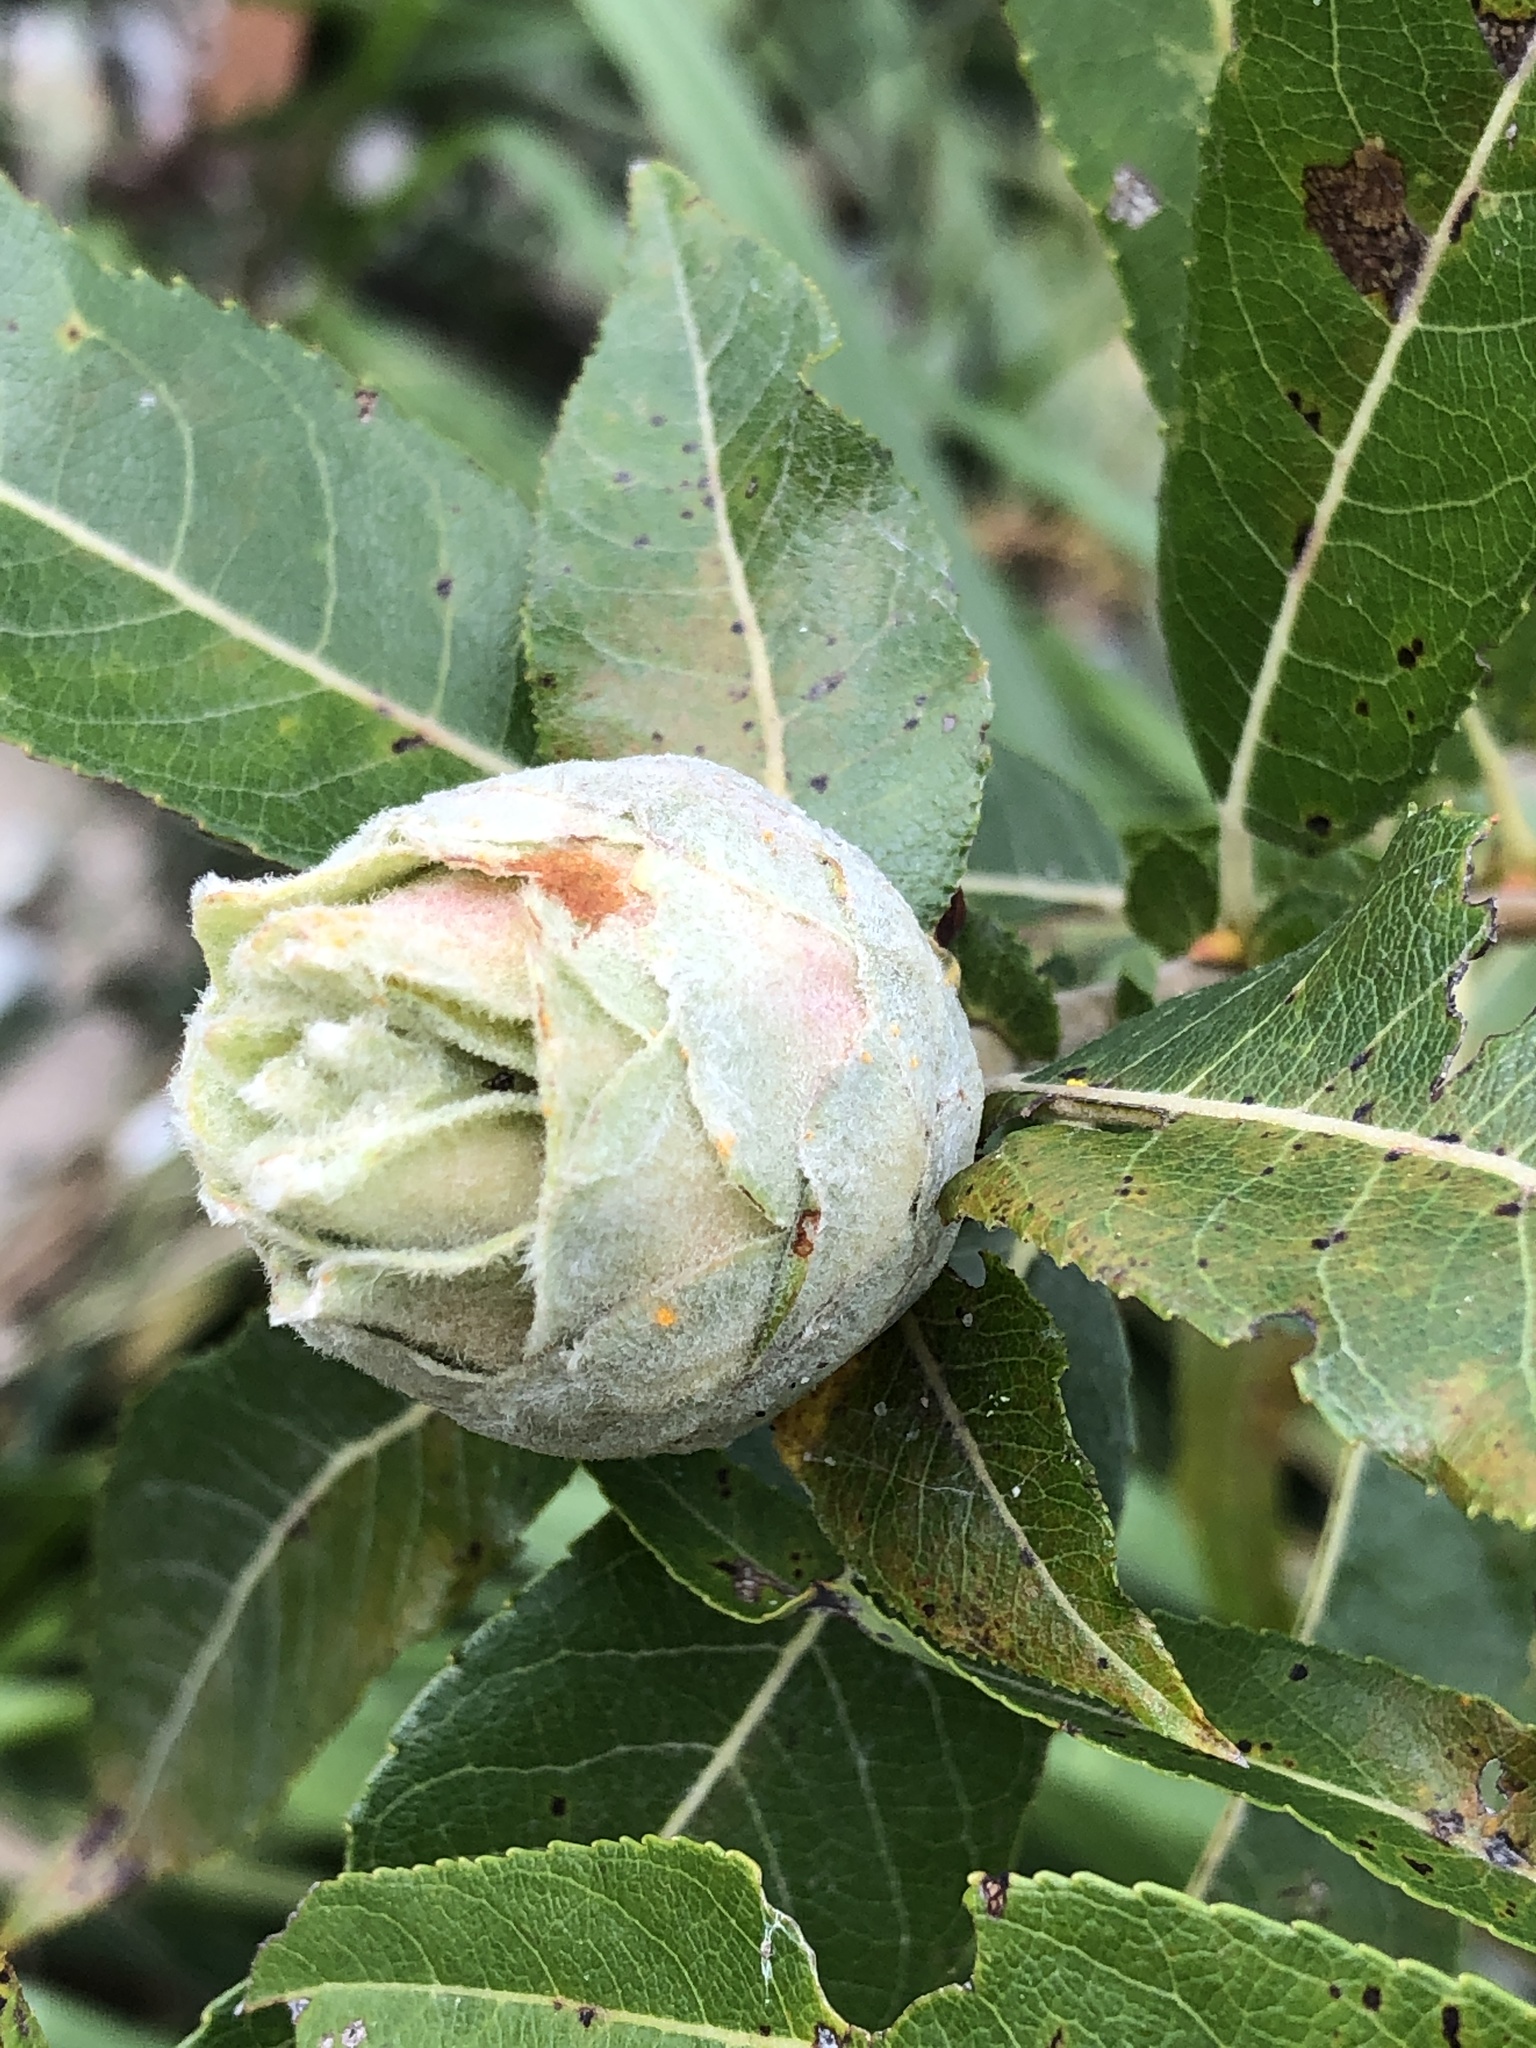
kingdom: Animalia
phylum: Arthropoda
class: Insecta
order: Diptera
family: Cecidomyiidae
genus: Rabdophaga
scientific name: Rabdophaga strobiloides
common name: Willow pinecone gall midge
